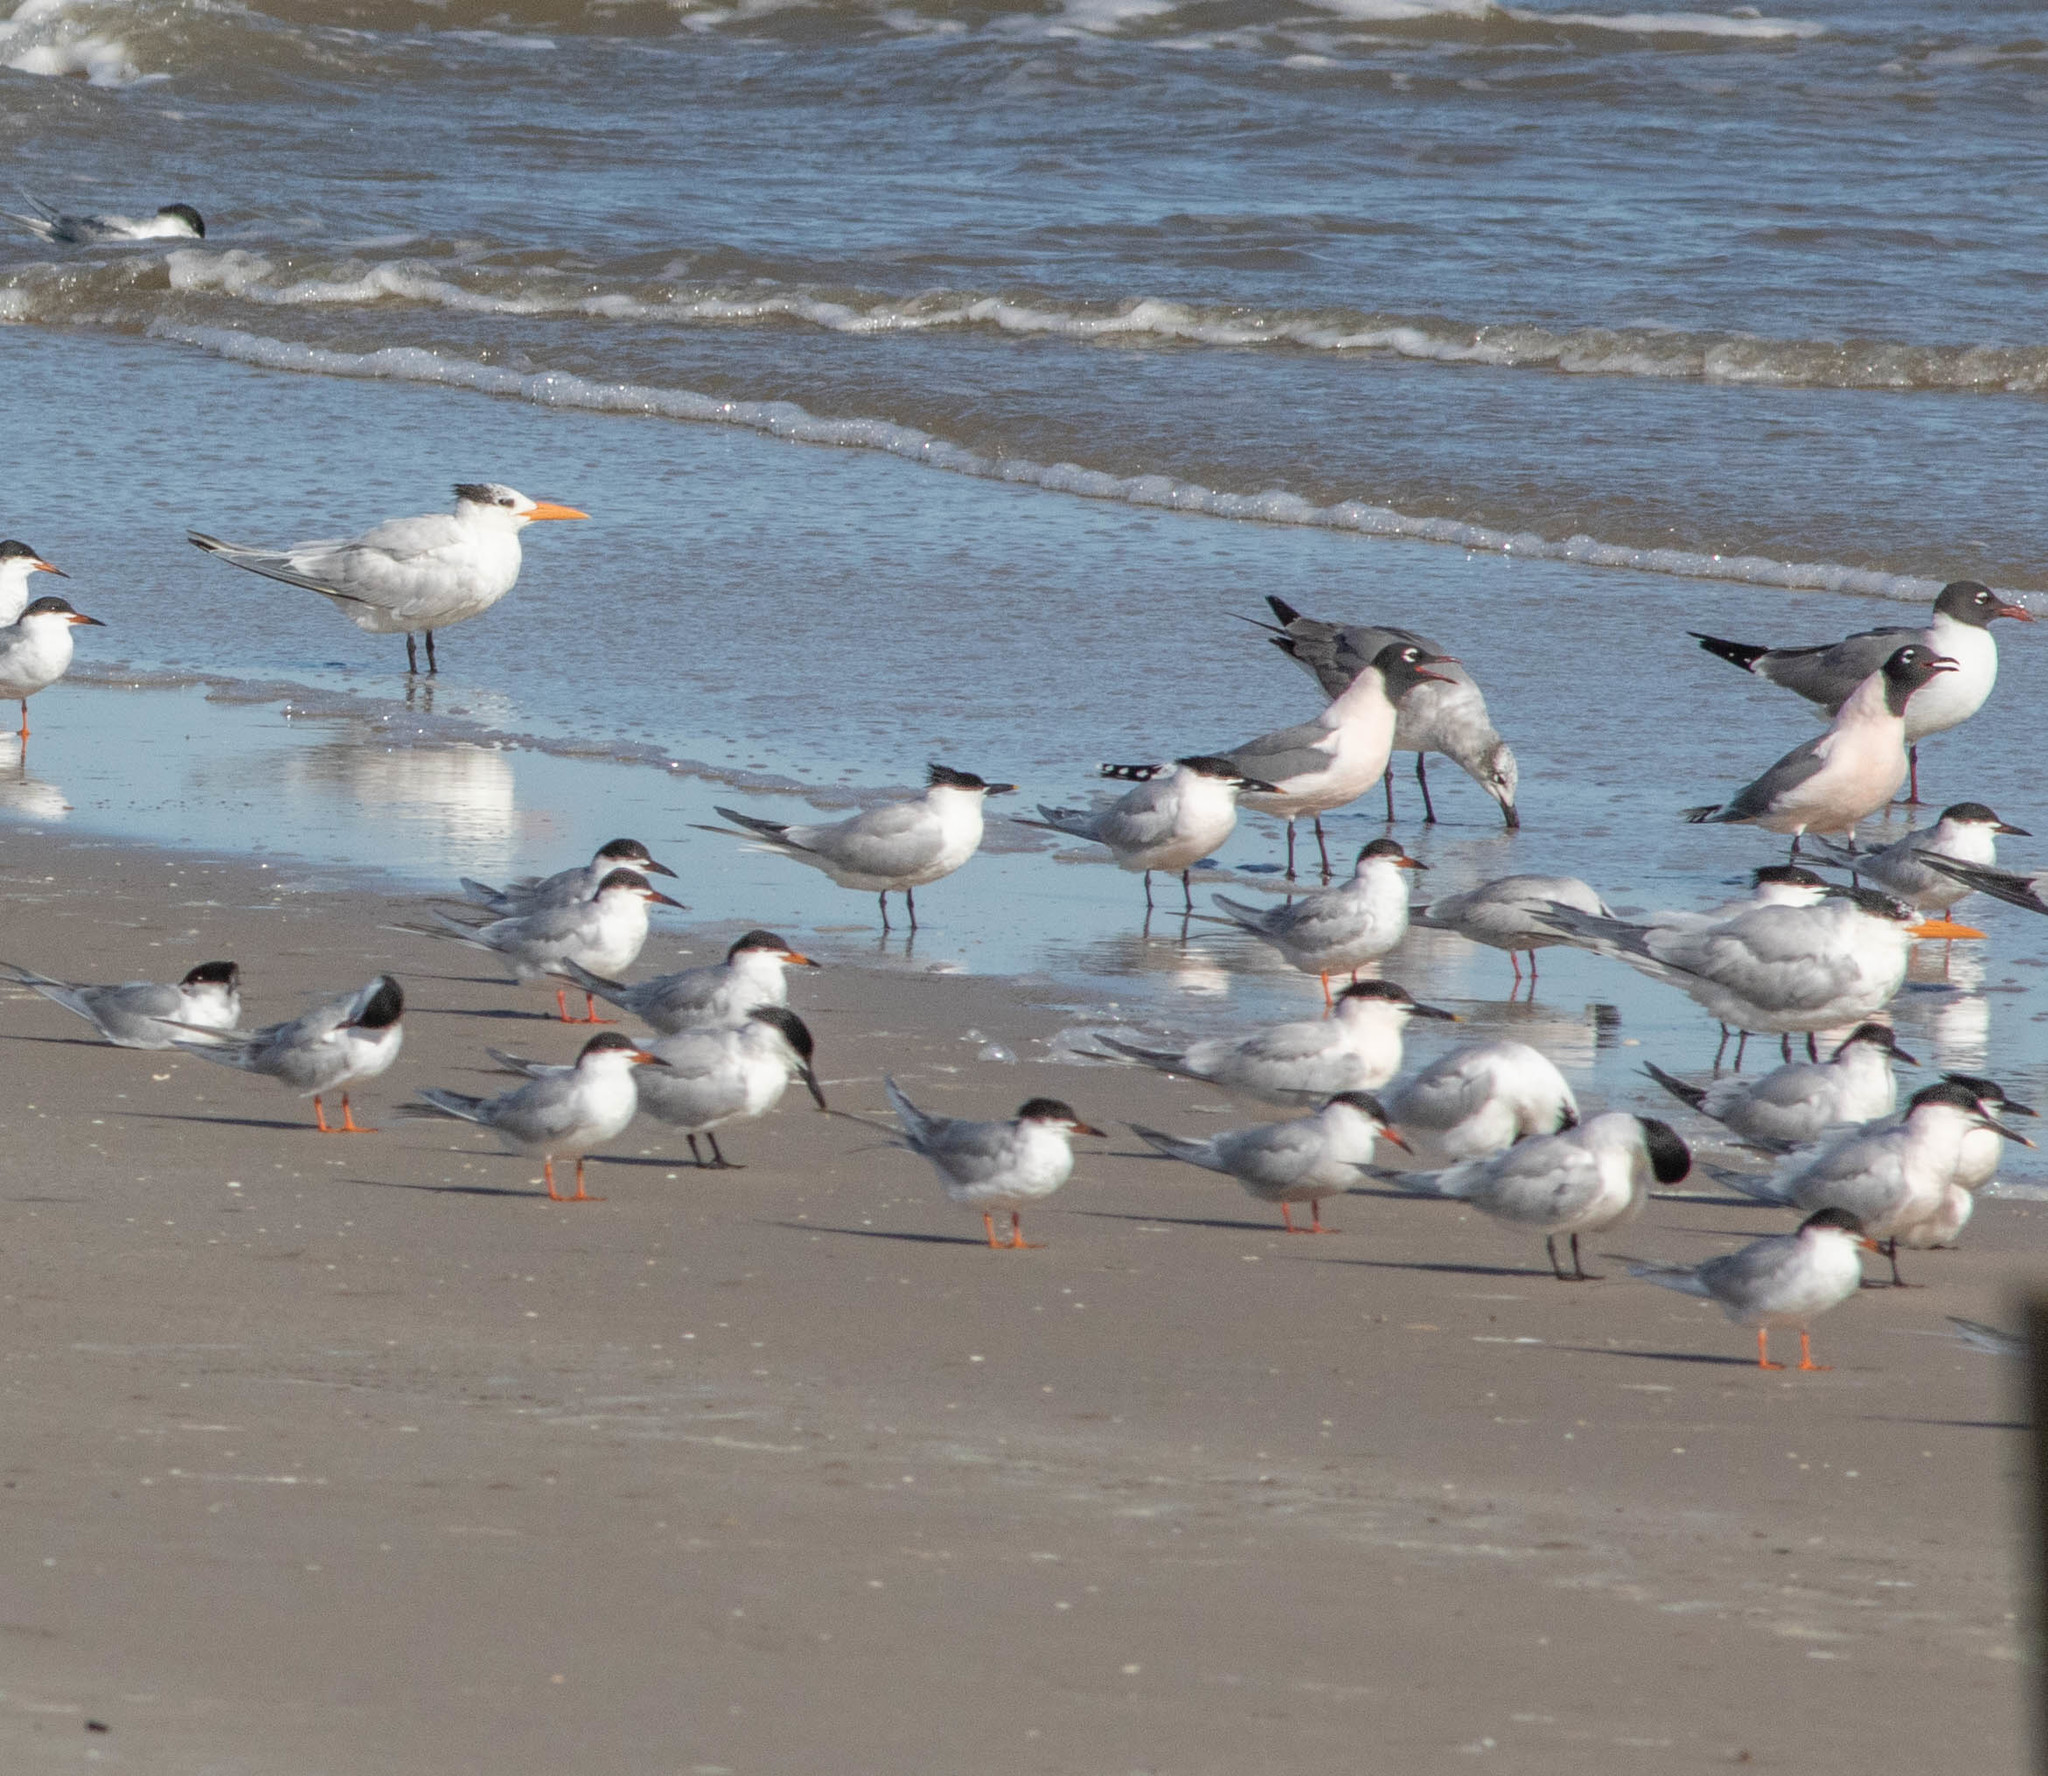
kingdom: Animalia
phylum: Chordata
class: Aves
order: Charadriiformes
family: Laridae
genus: Sterna
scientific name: Sterna forsteri
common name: Forster's tern
